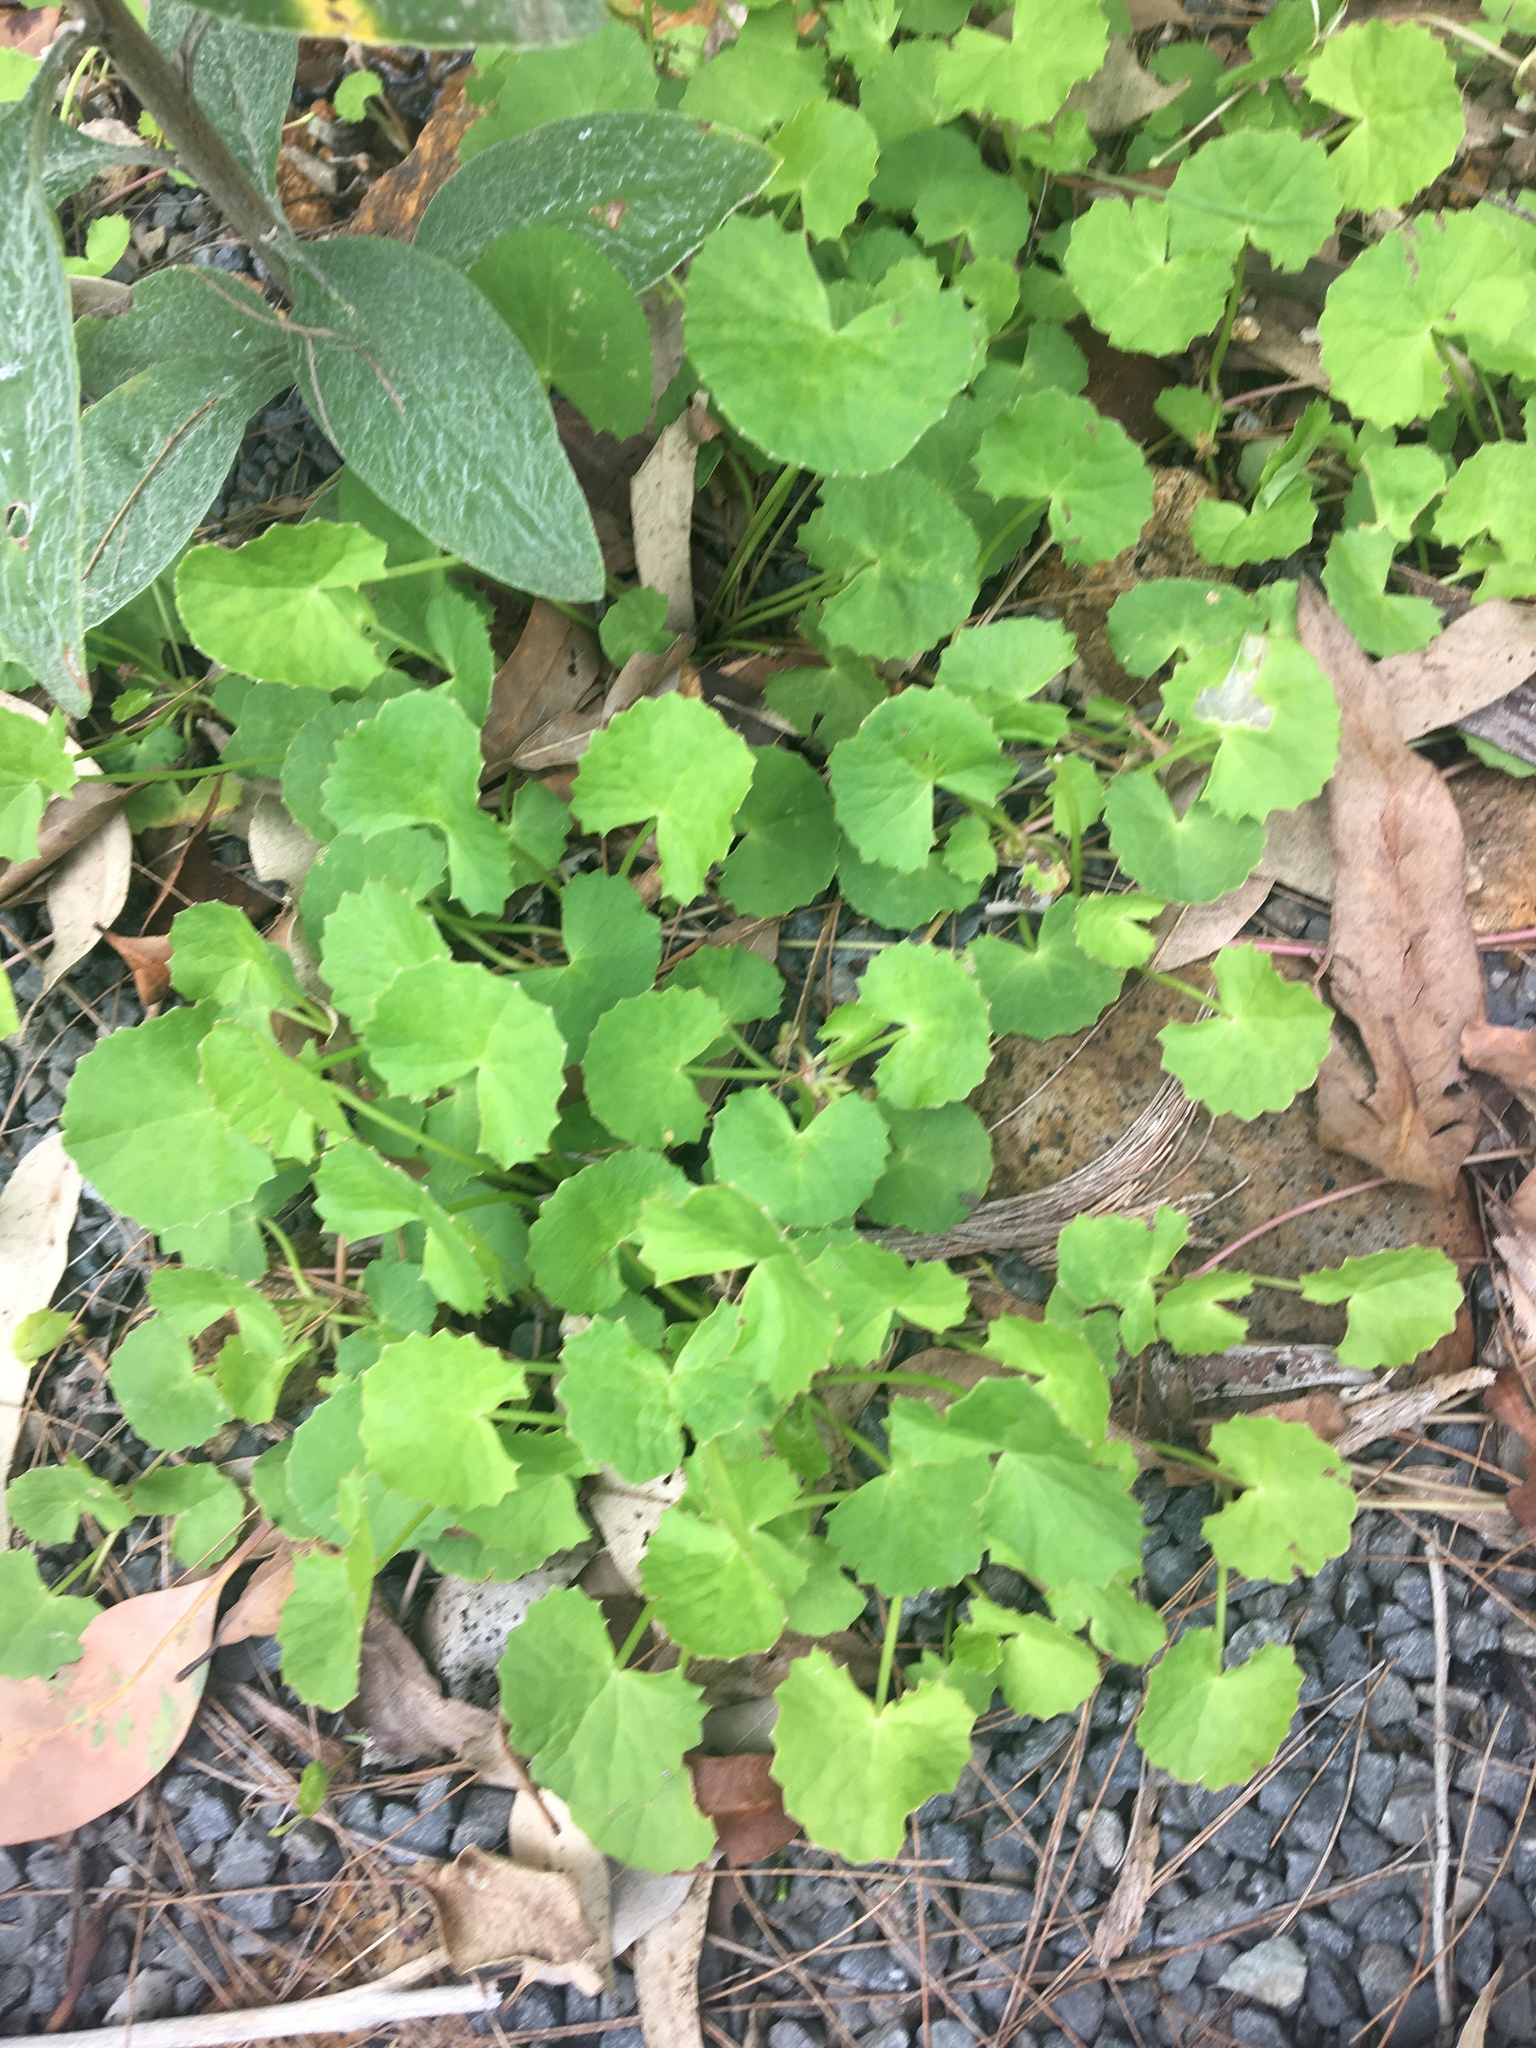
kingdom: Plantae
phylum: Tracheophyta
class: Magnoliopsida
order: Apiales
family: Apiaceae
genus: Centella
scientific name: Centella asiatica
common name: Spadeleaf
